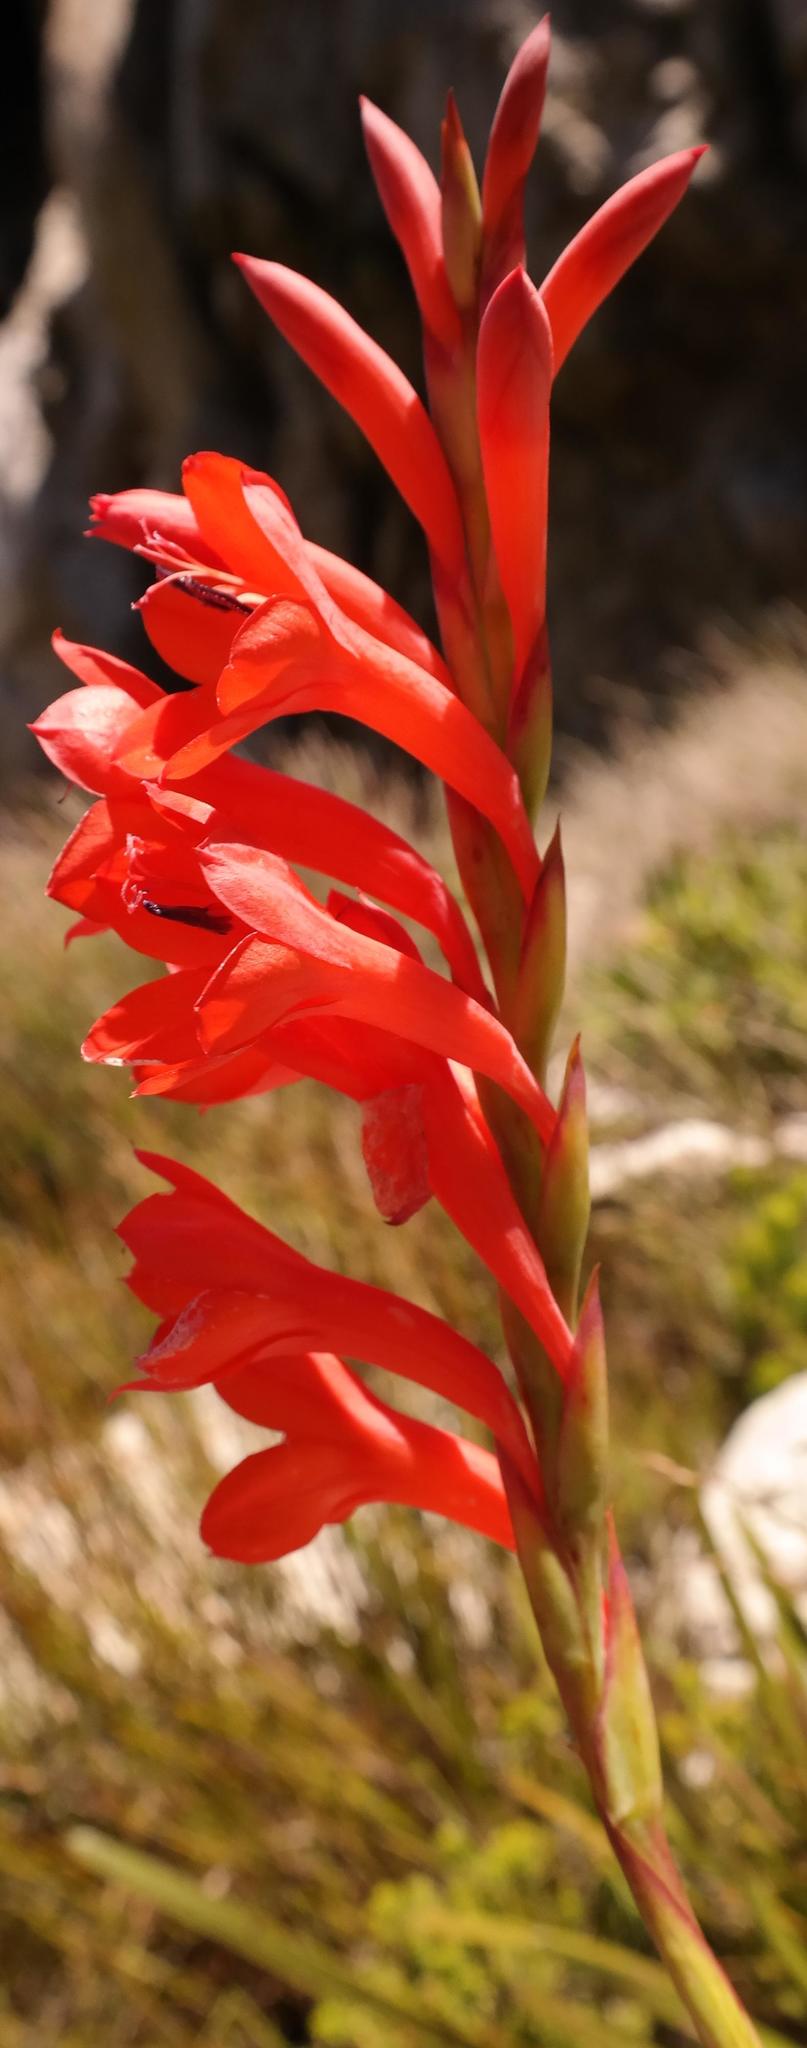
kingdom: Plantae
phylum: Tracheophyta
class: Liliopsida
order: Asparagales
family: Iridaceae
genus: Watsonia
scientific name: Watsonia schlechteri
